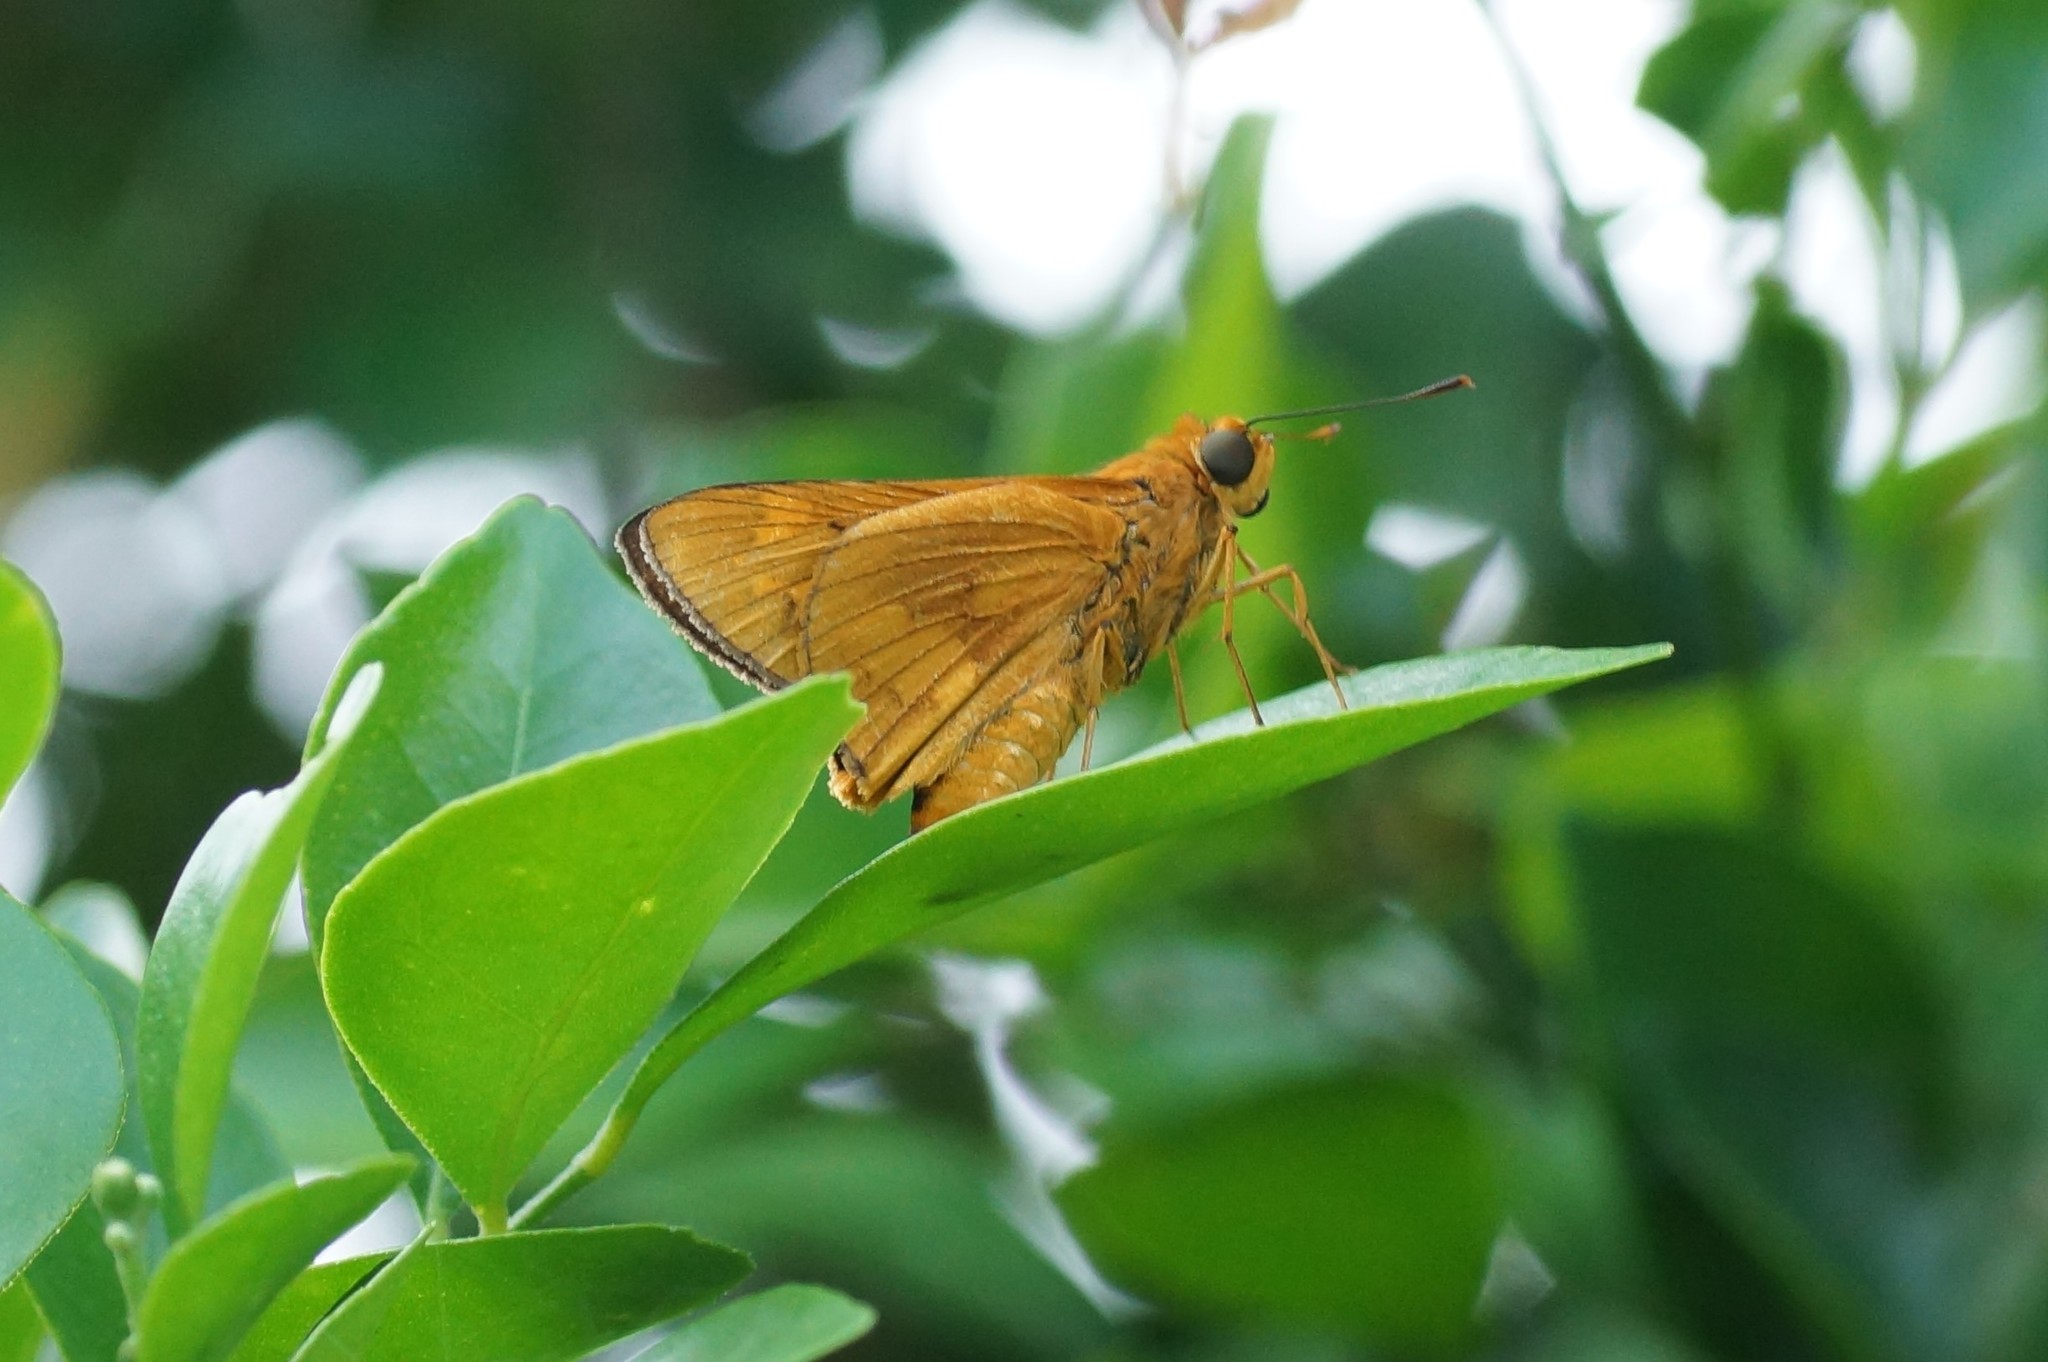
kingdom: Animalia
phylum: Arthropoda
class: Insecta
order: Lepidoptera
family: Hesperiidae
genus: Cephrenes
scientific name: Cephrenes augiades
